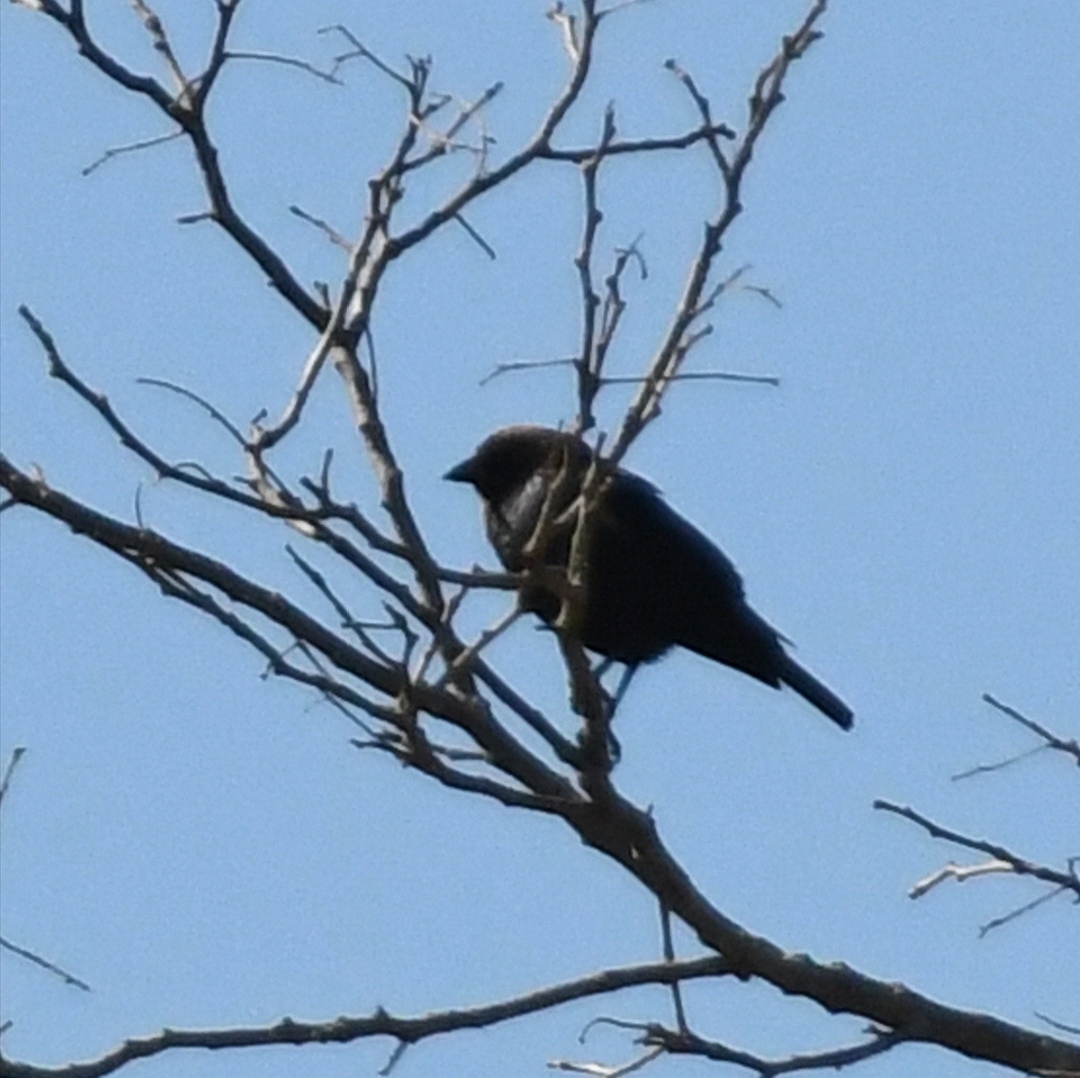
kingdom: Animalia
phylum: Chordata
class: Aves
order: Passeriformes
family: Icteridae
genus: Molothrus
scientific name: Molothrus ater
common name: Brown-headed cowbird
